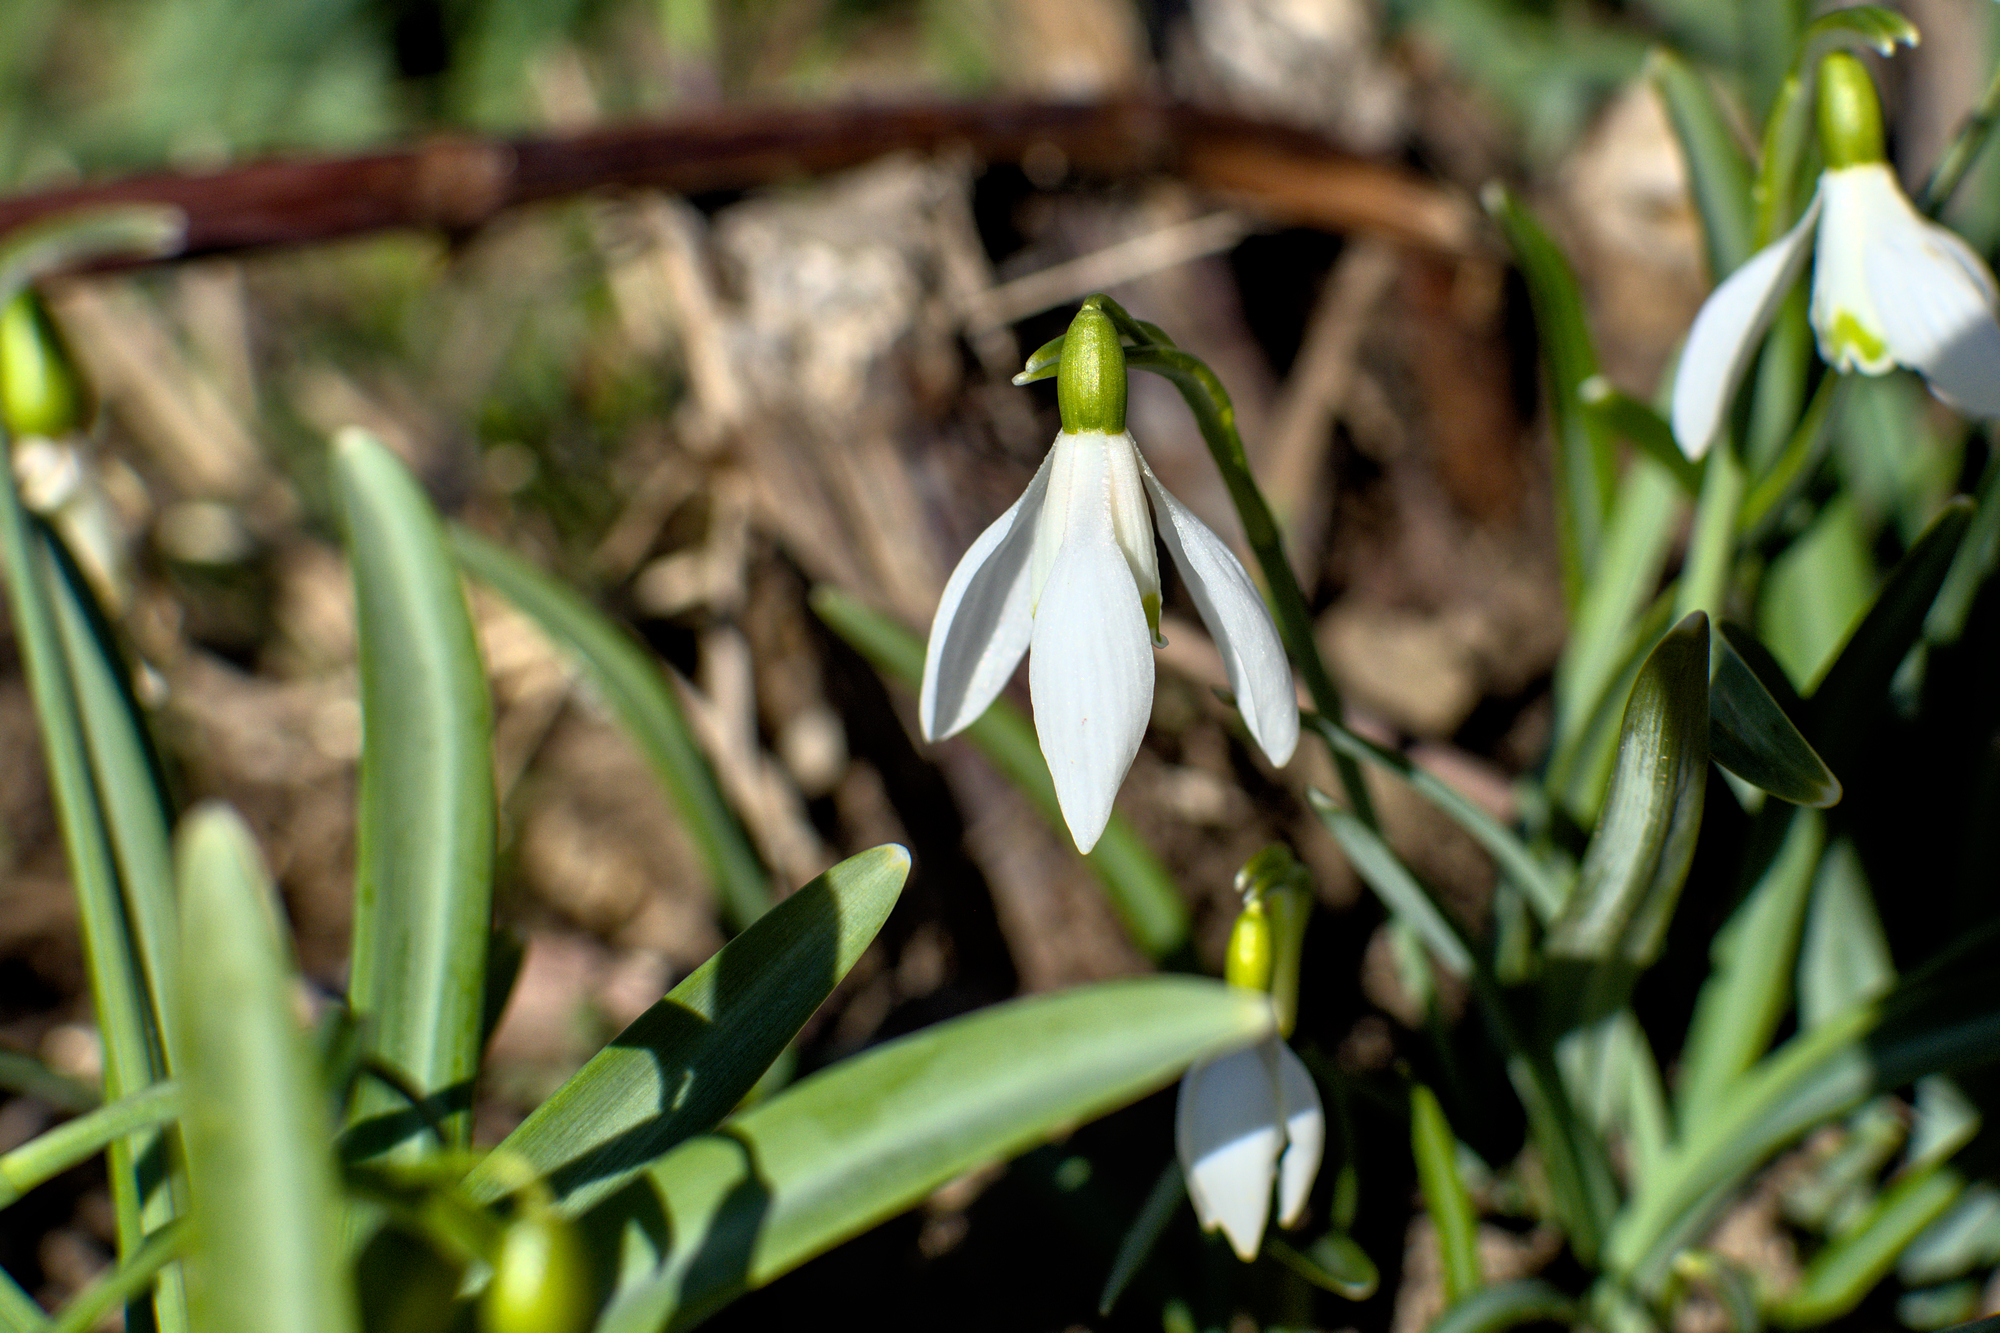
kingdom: Plantae
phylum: Tracheophyta
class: Liliopsida
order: Asparagales
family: Amaryllidaceae
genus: Galanthus
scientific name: Galanthus nivalis
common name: Snowdrop
